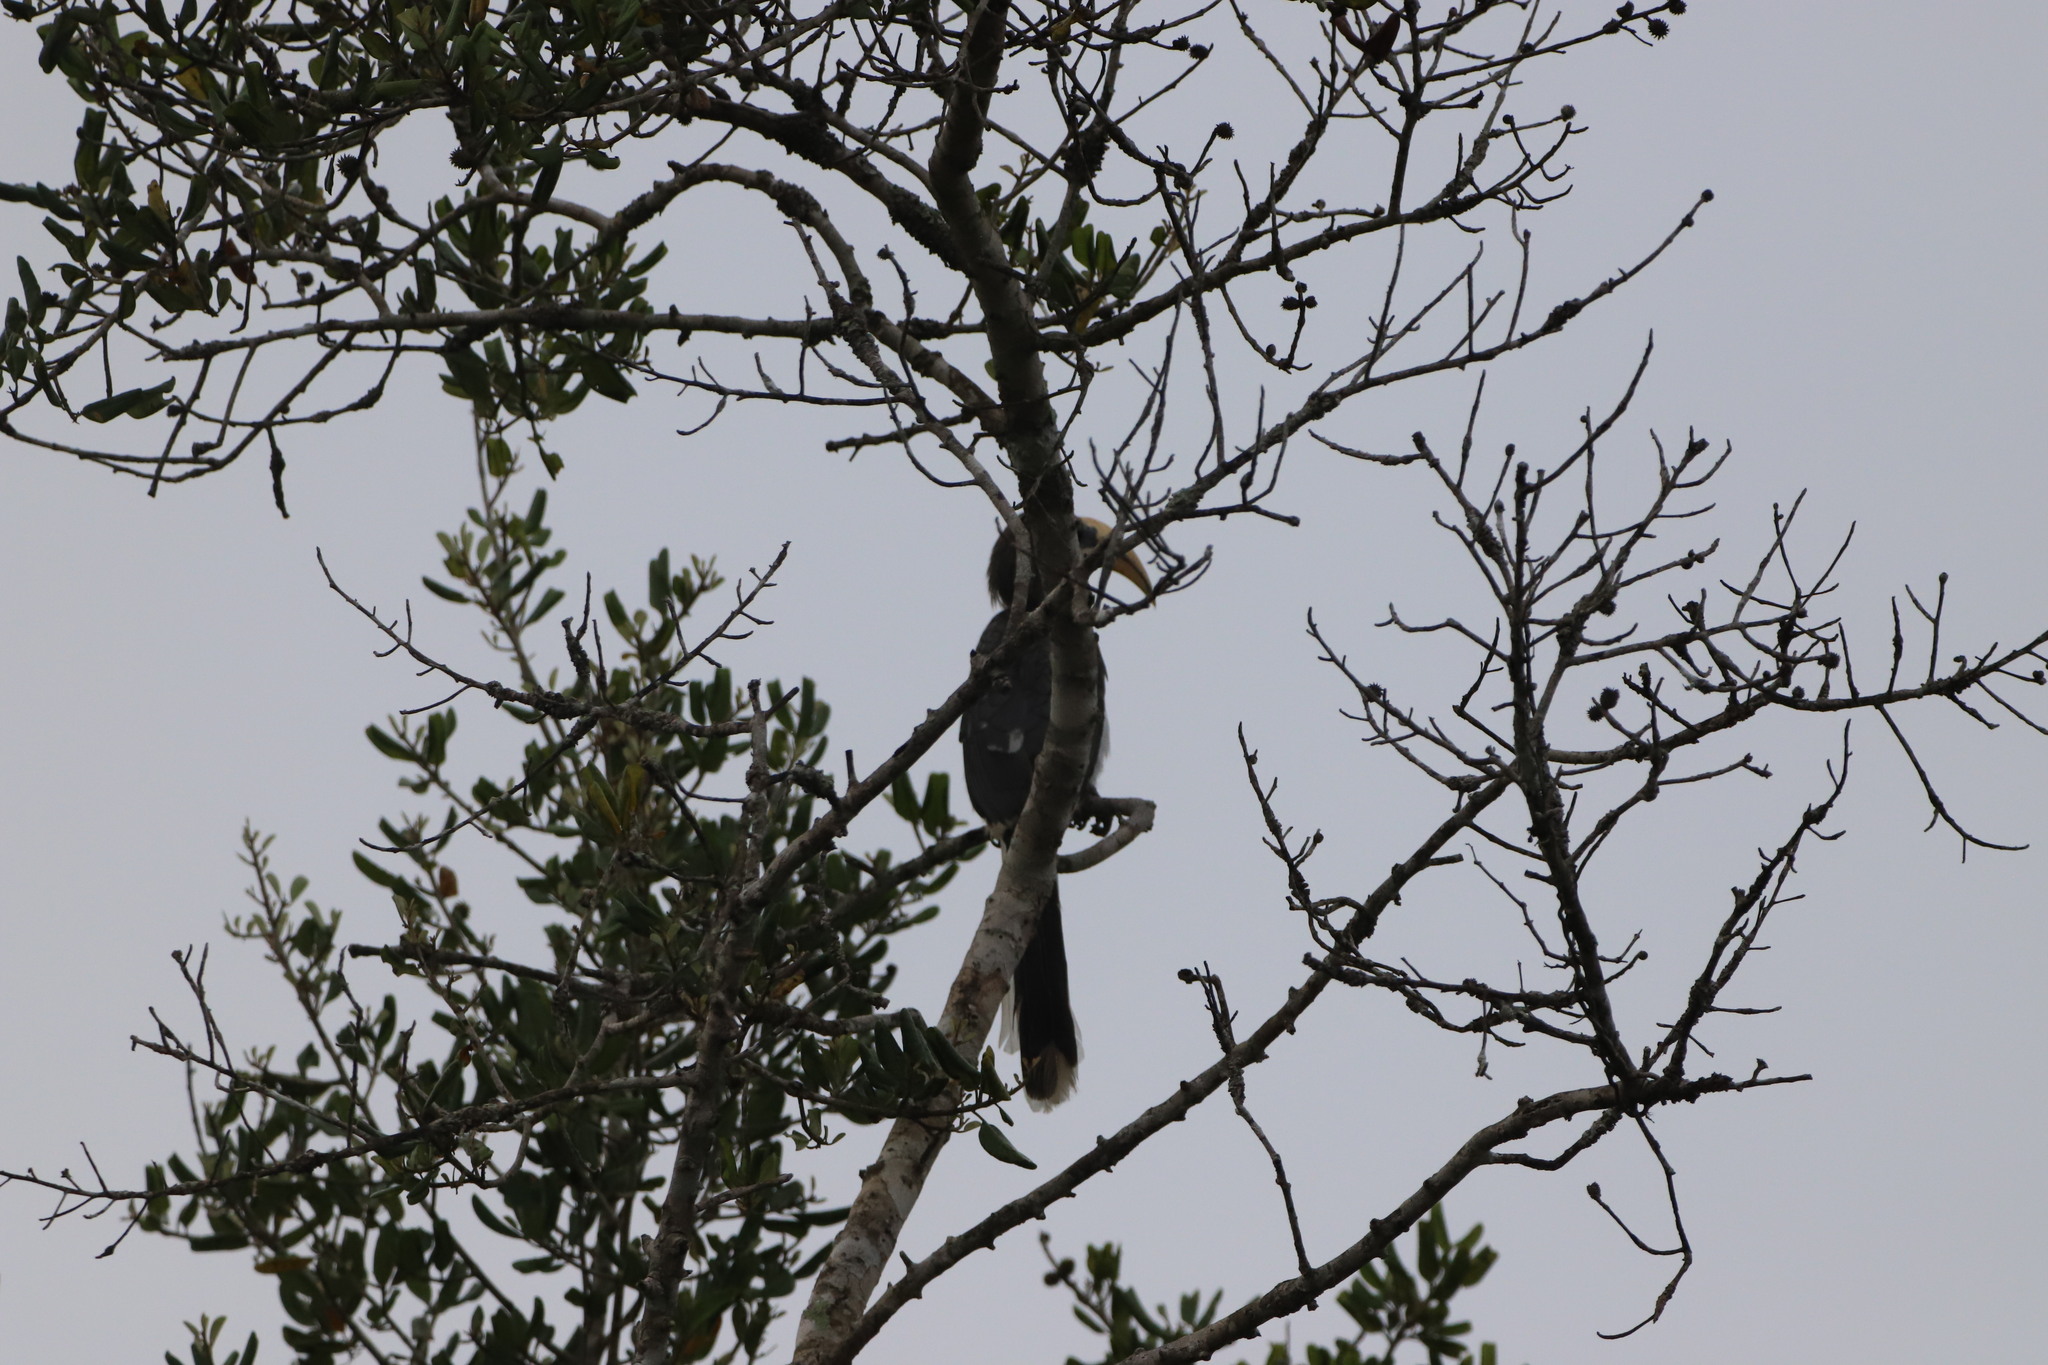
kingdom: Animalia
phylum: Chordata
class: Aves
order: Bucerotiformes
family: Bucerotidae
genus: Ocyceros
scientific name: Ocyceros gingalensis
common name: Sri lanka grey hornbill
